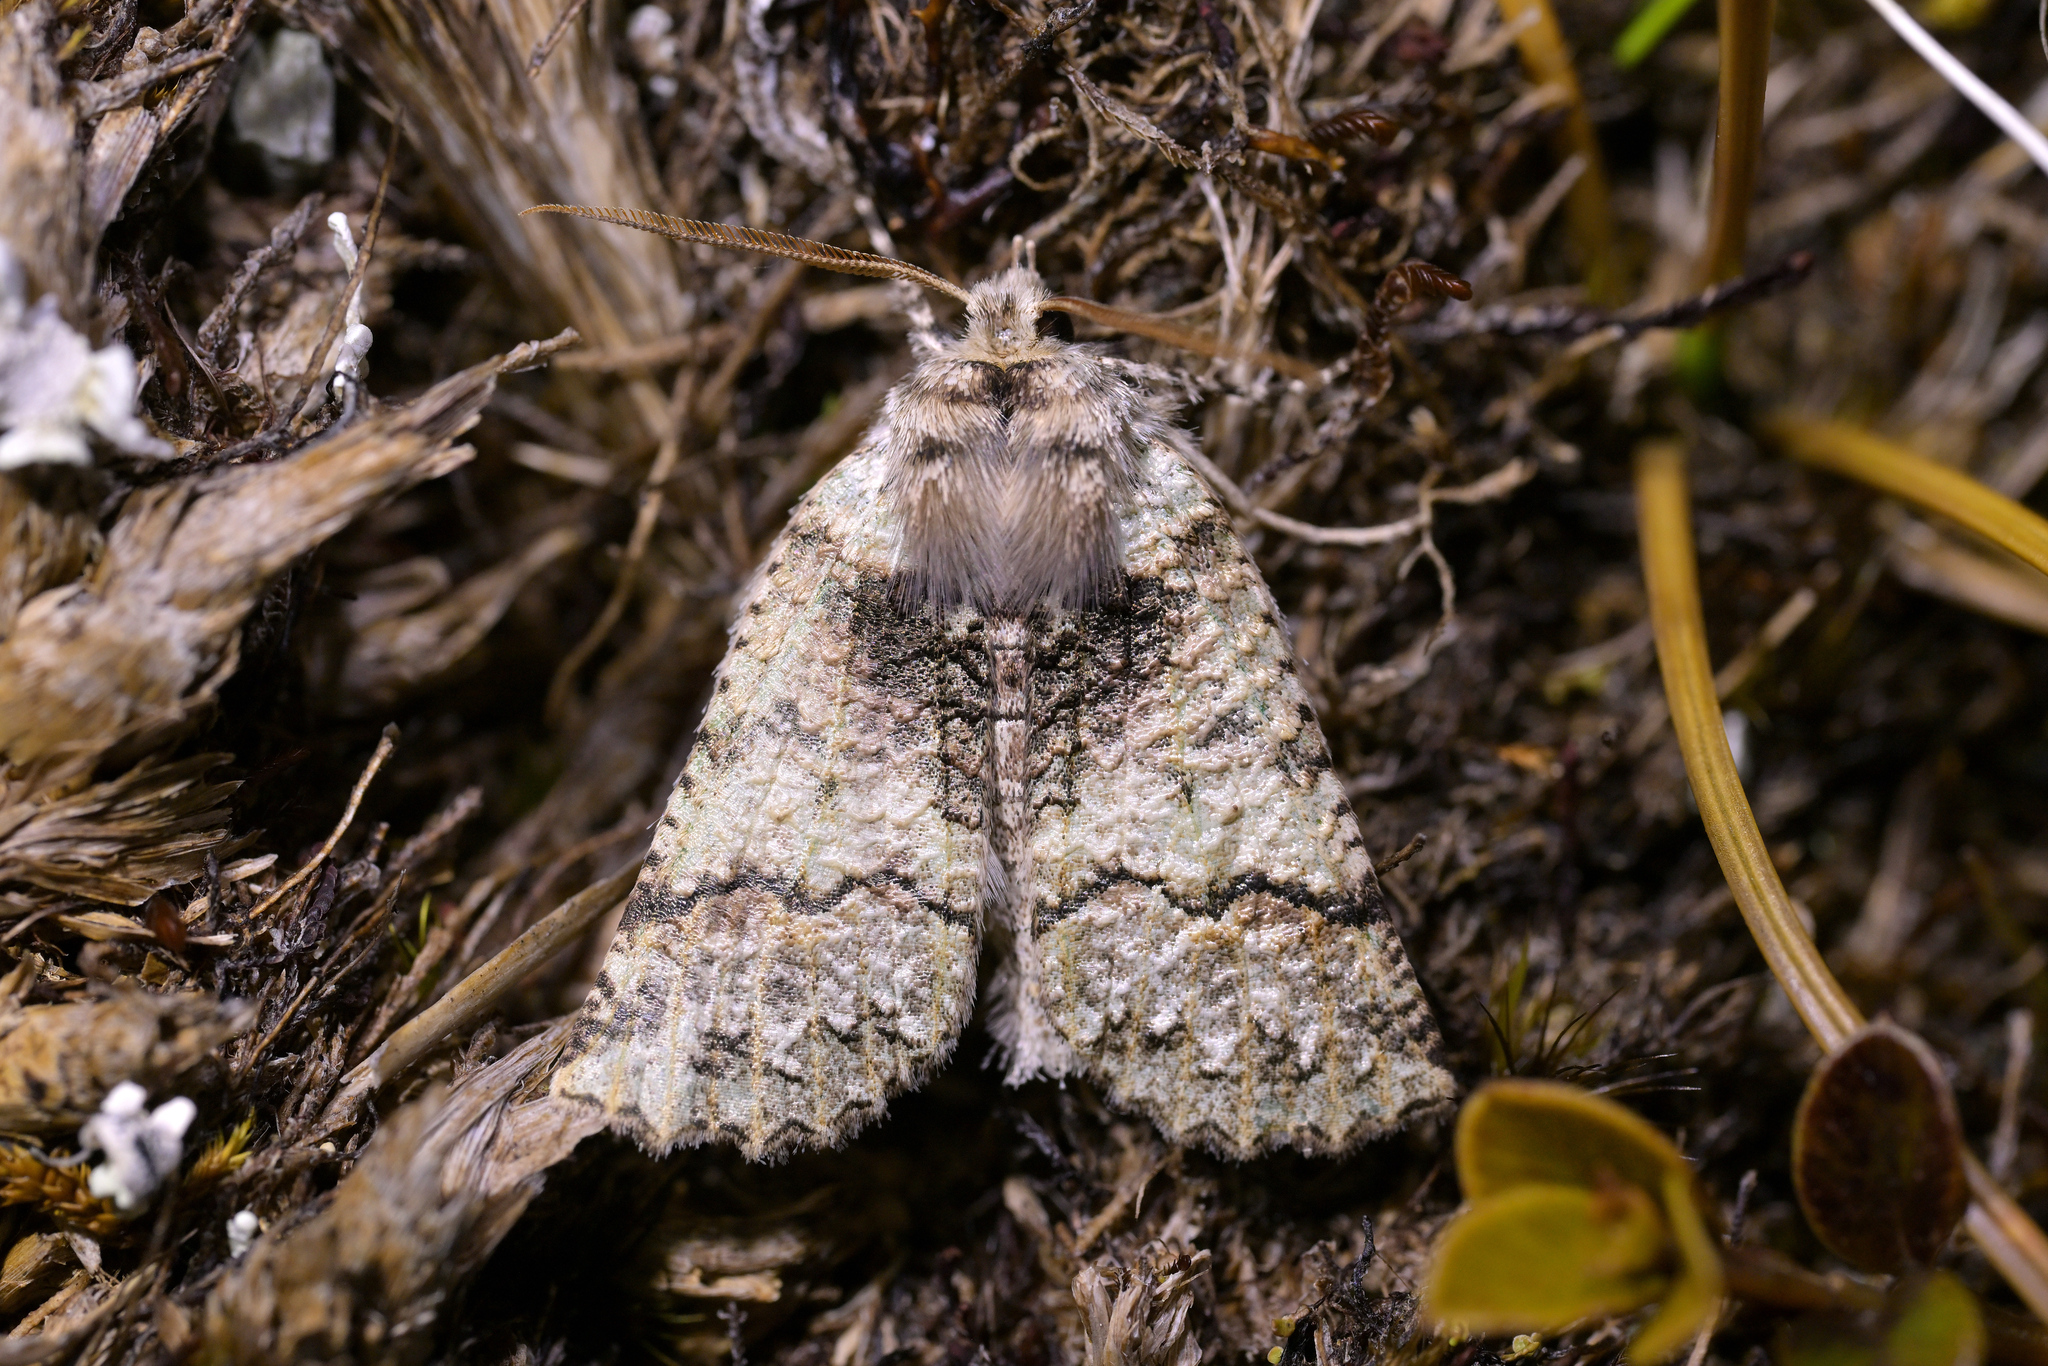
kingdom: Animalia
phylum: Arthropoda
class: Insecta
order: Lepidoptera
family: Geometridae
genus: Declana
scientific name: Declana floccosa
